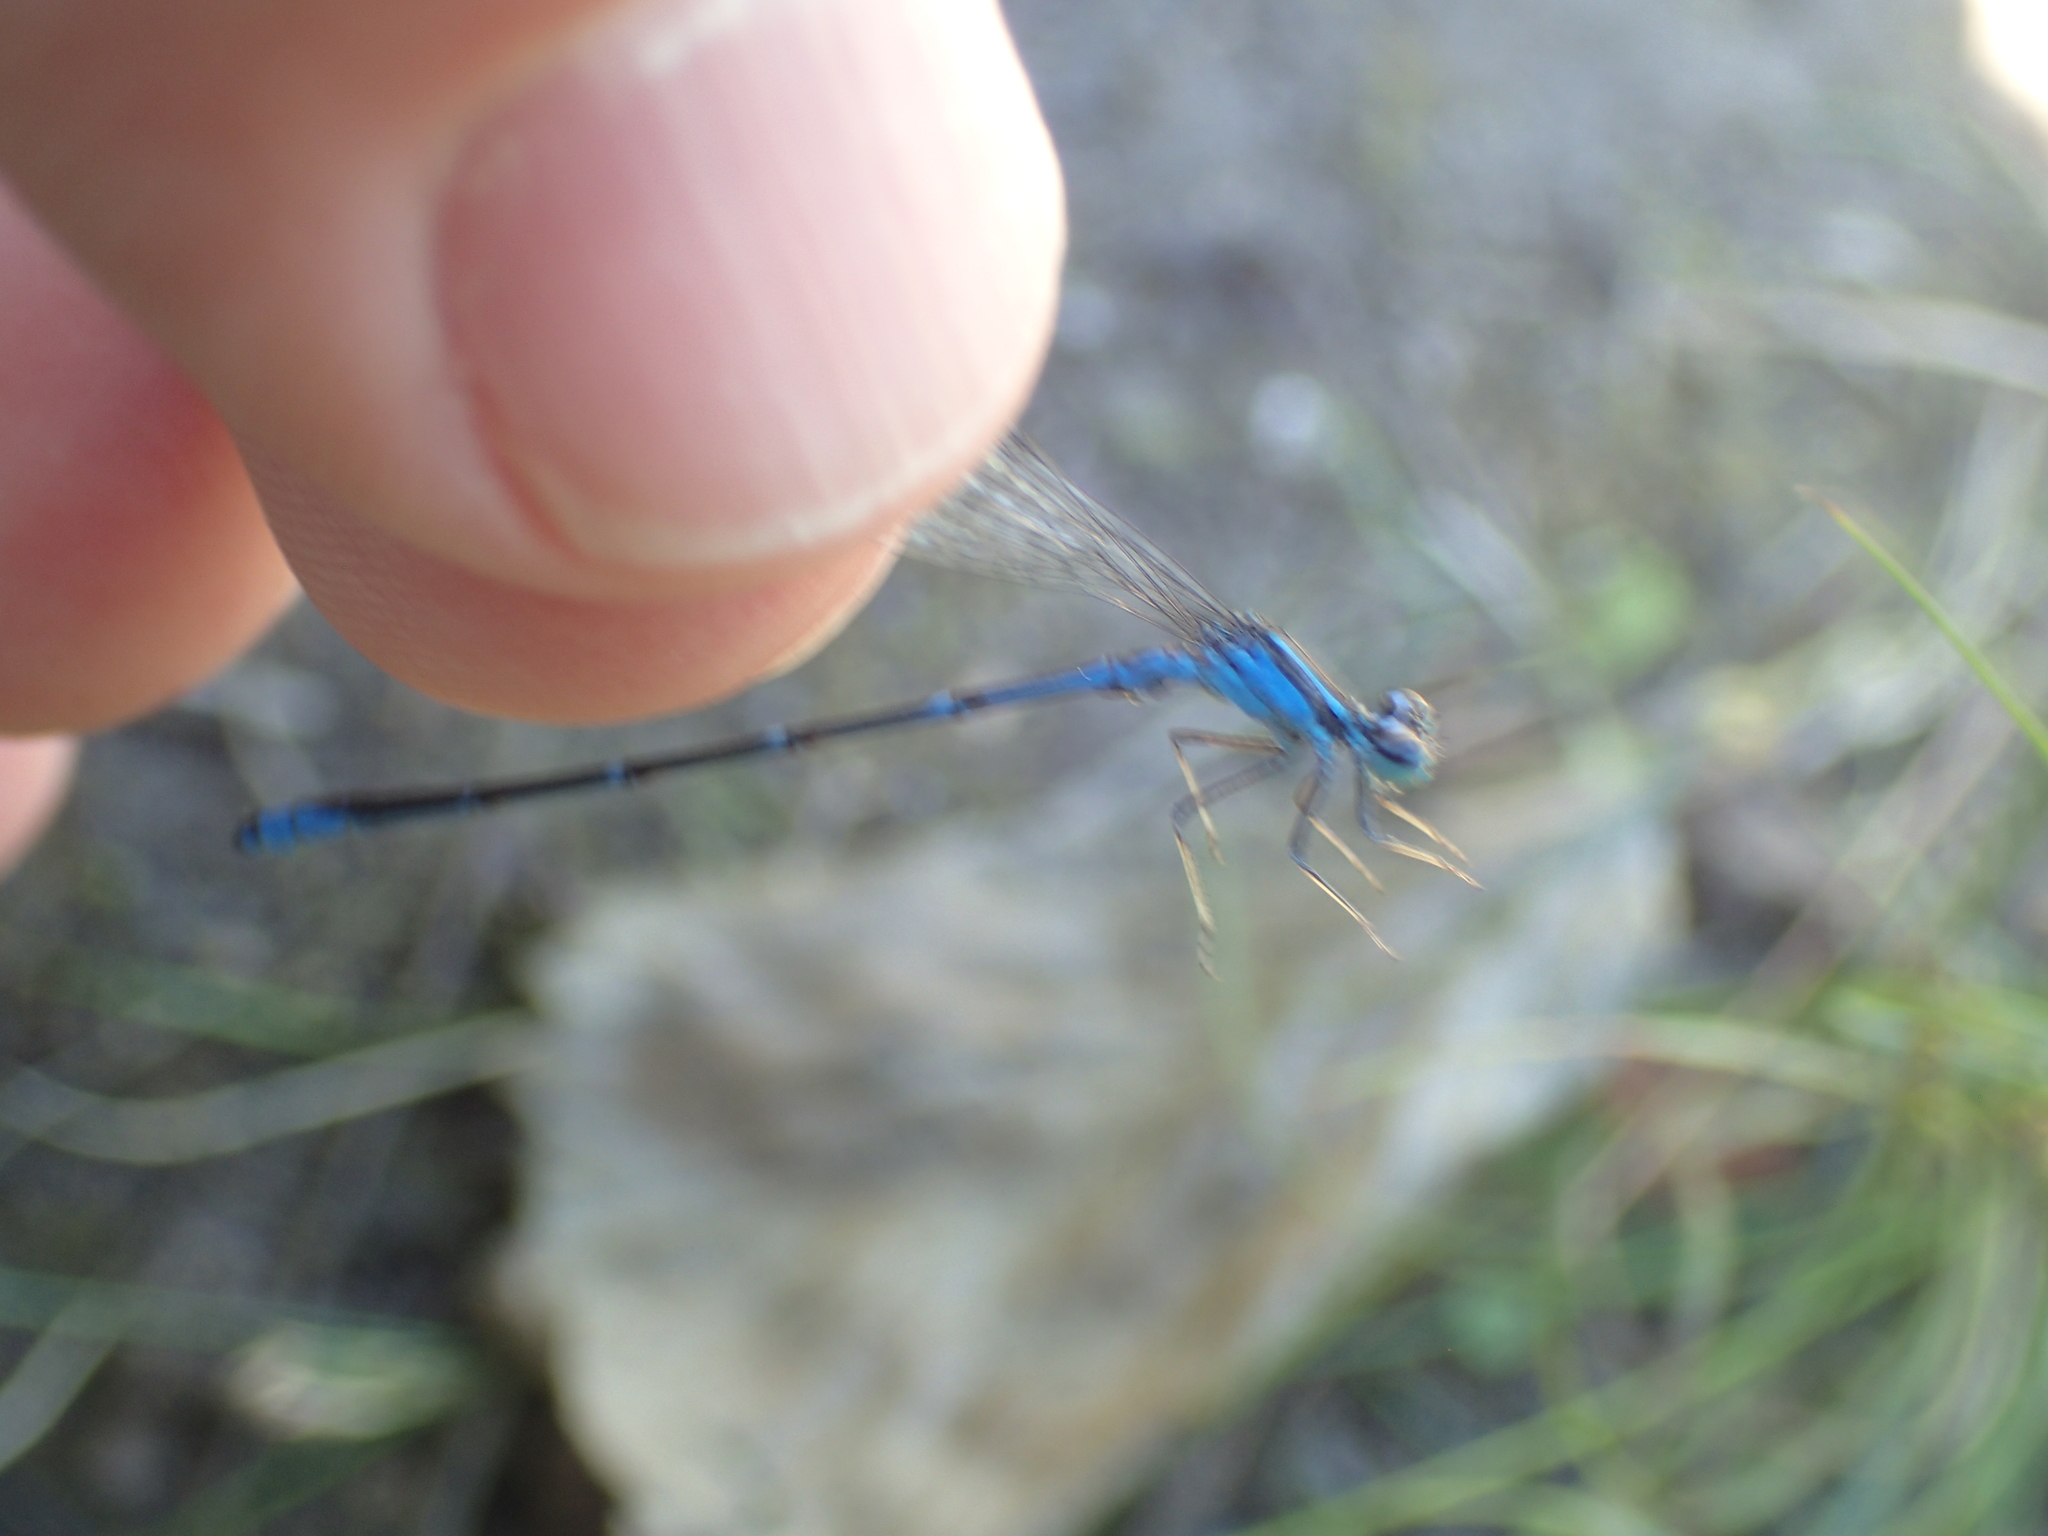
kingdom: Animalia
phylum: Arthropoda
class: Insecta
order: Odonata
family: Coenagrionidae
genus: Enallagma
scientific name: Enallagma exsulans
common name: Stream bluet
